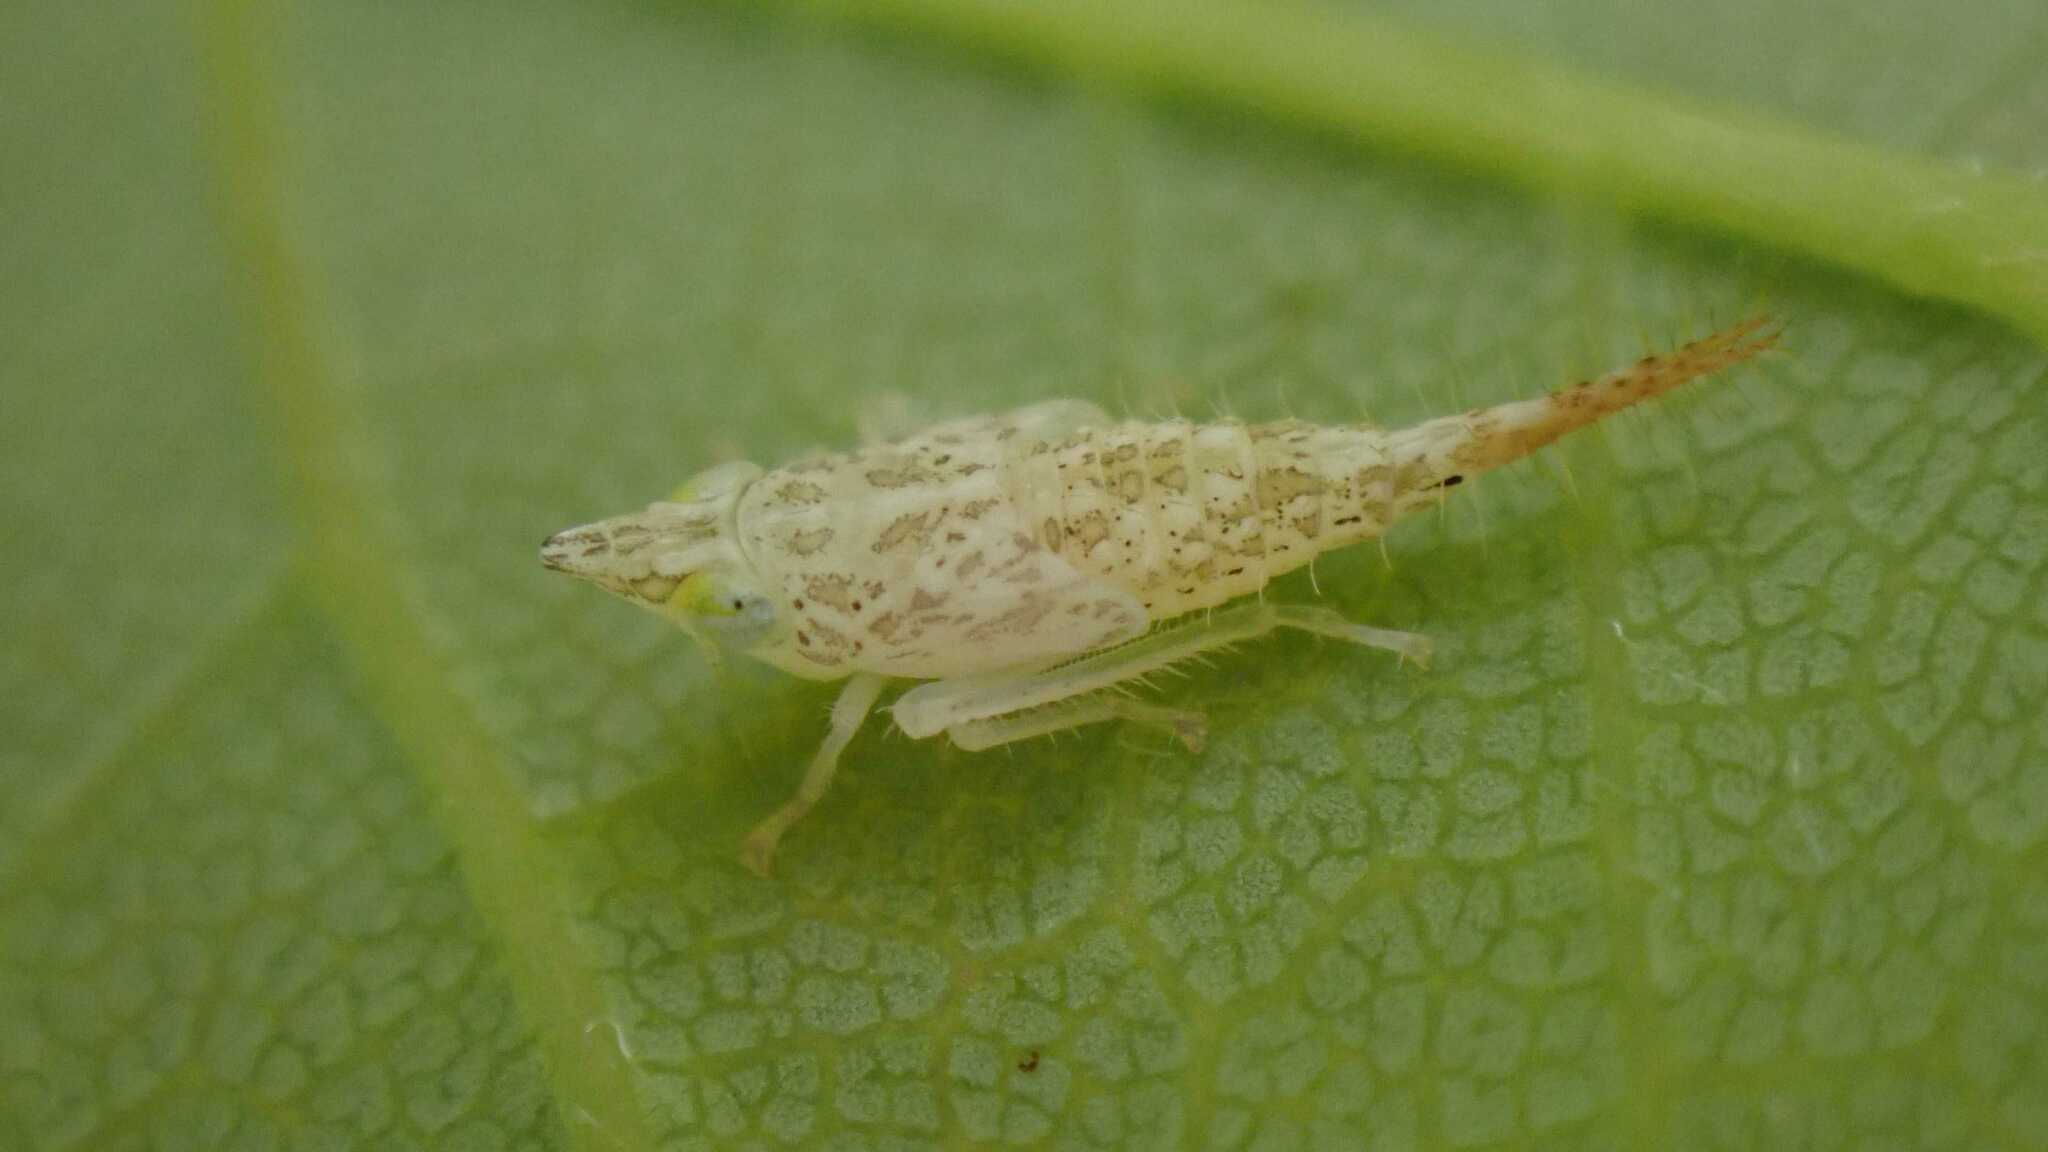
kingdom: Animalia
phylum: Arthropoda
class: Insecta
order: Hemiptera
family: Cicadellidae
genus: Japananus
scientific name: Japananus hyalinus
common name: The japanese maple leafhopper
